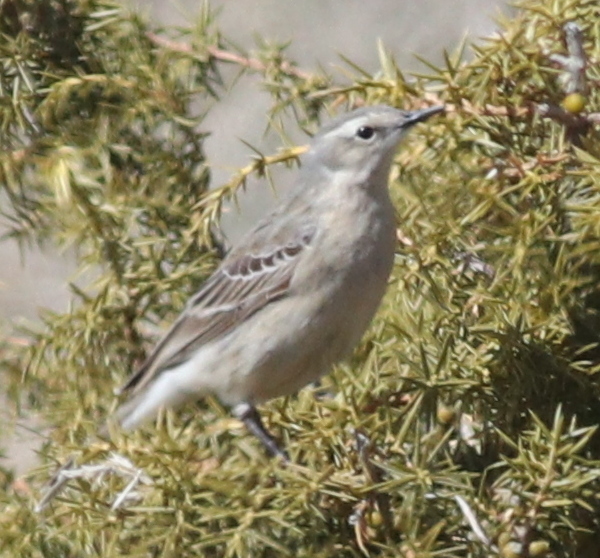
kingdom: Animalia
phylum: Chordata
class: Aves
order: Passeriformes
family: Motacillidae
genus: Anthus
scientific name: Anthus spinoletta
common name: Water pipit
